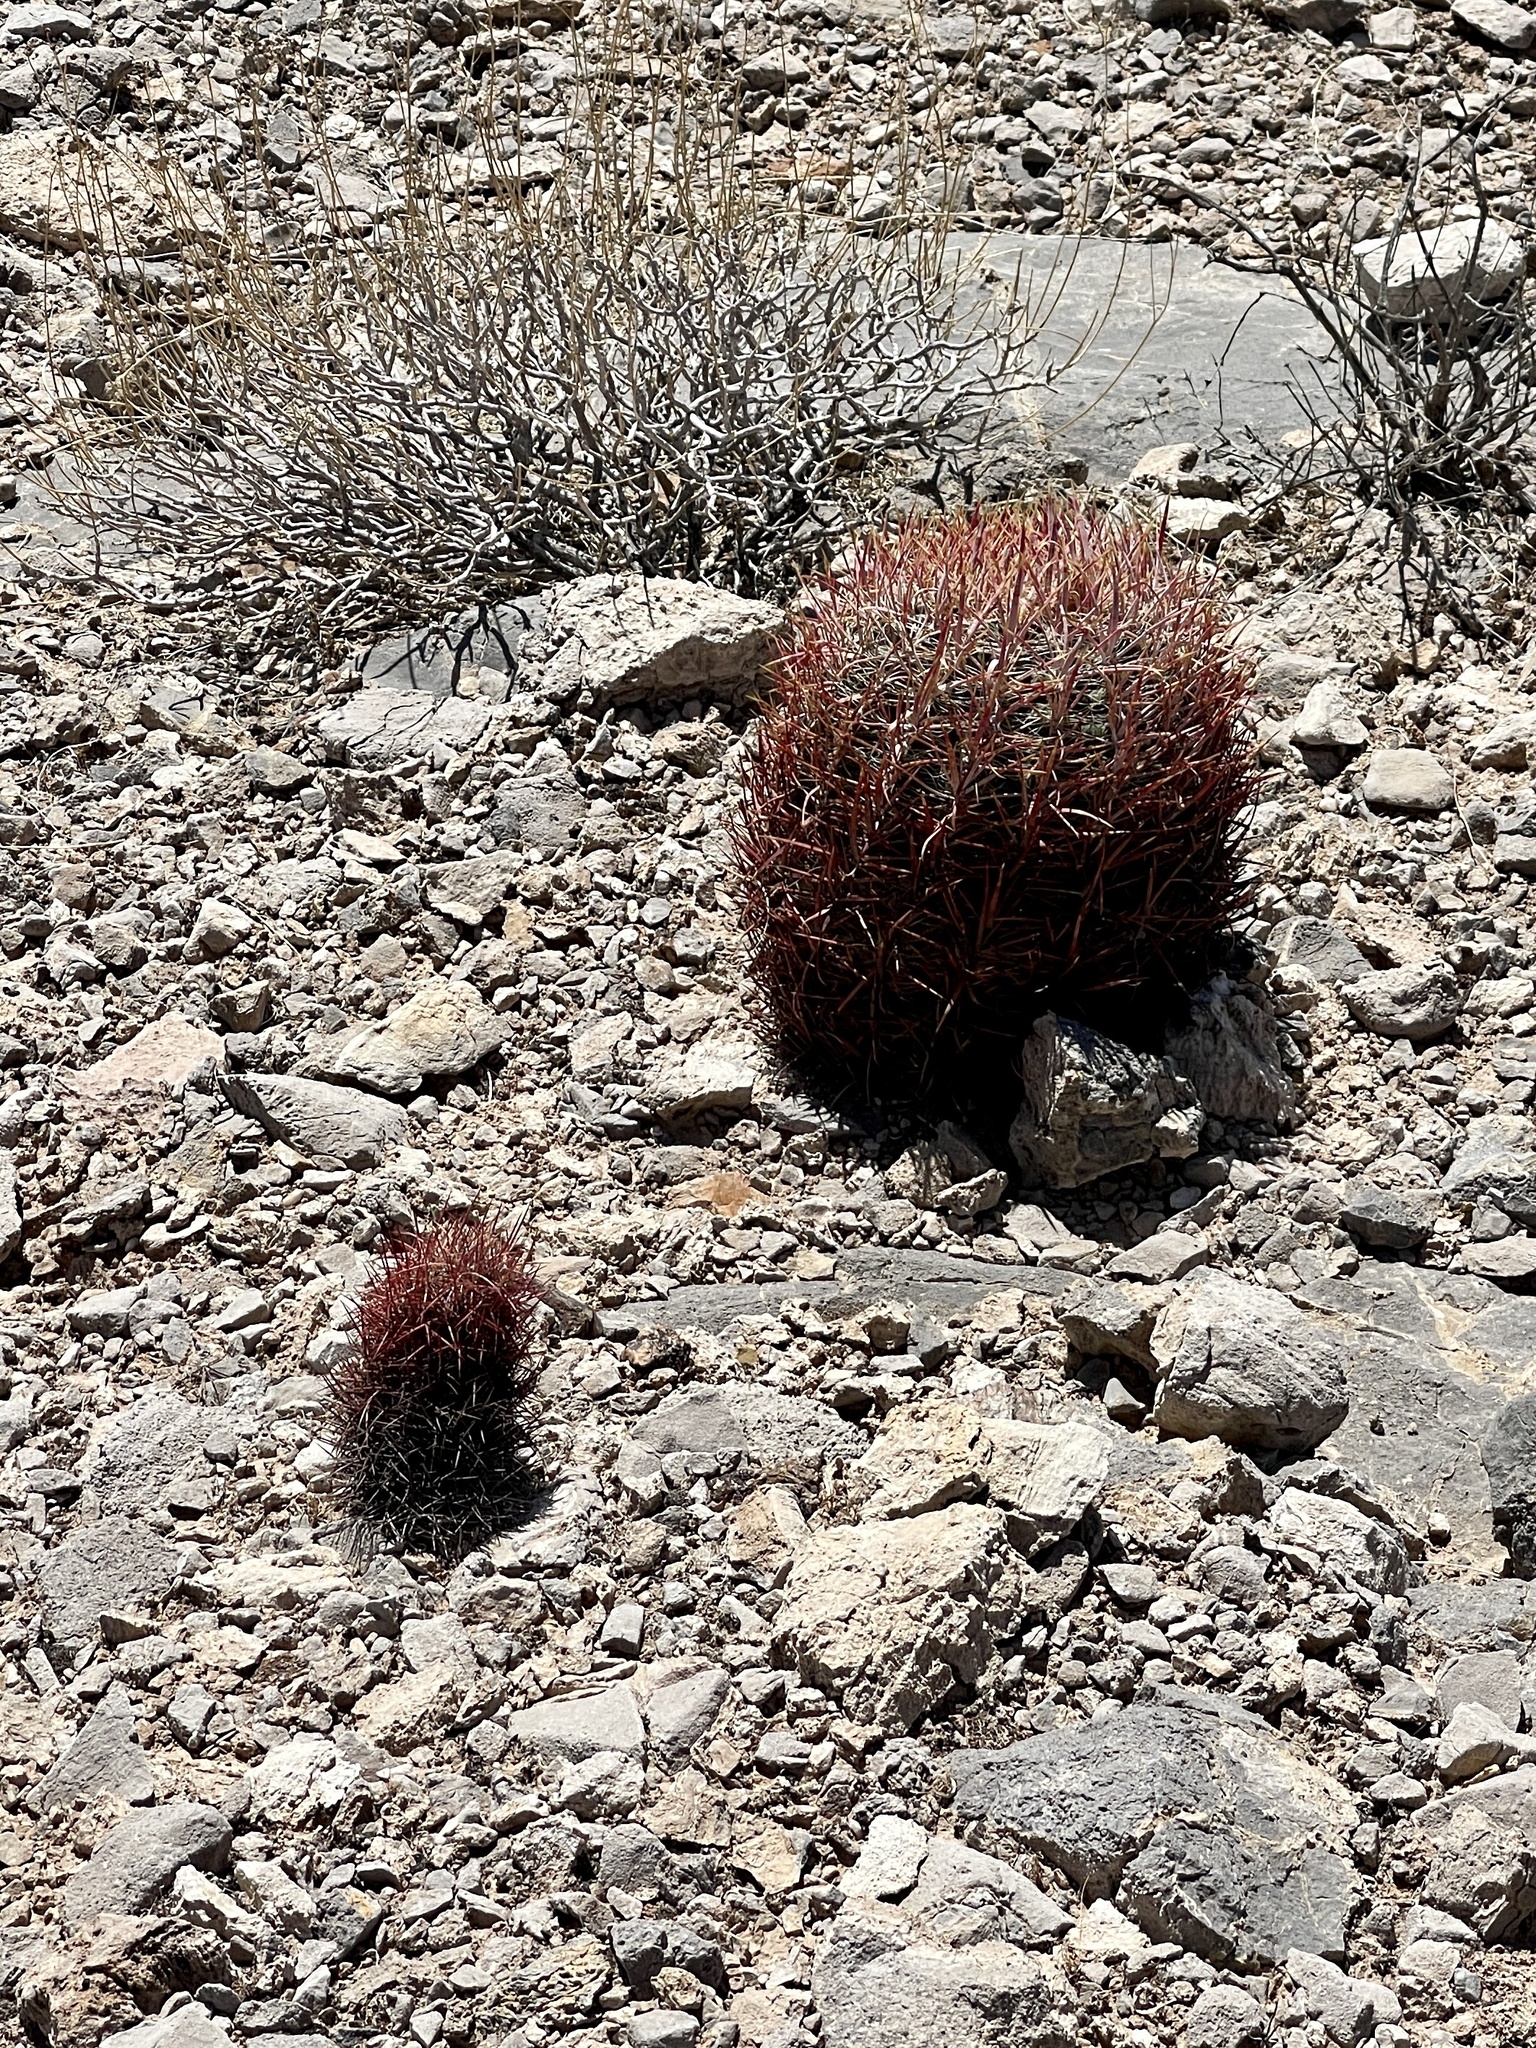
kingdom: Plantae
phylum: Tracheophyta
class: Magnoliopsida
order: Caryophyllales
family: Cactaceae
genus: Ferocactus
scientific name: Ferocactus cylindraceus
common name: California barrel cactus
